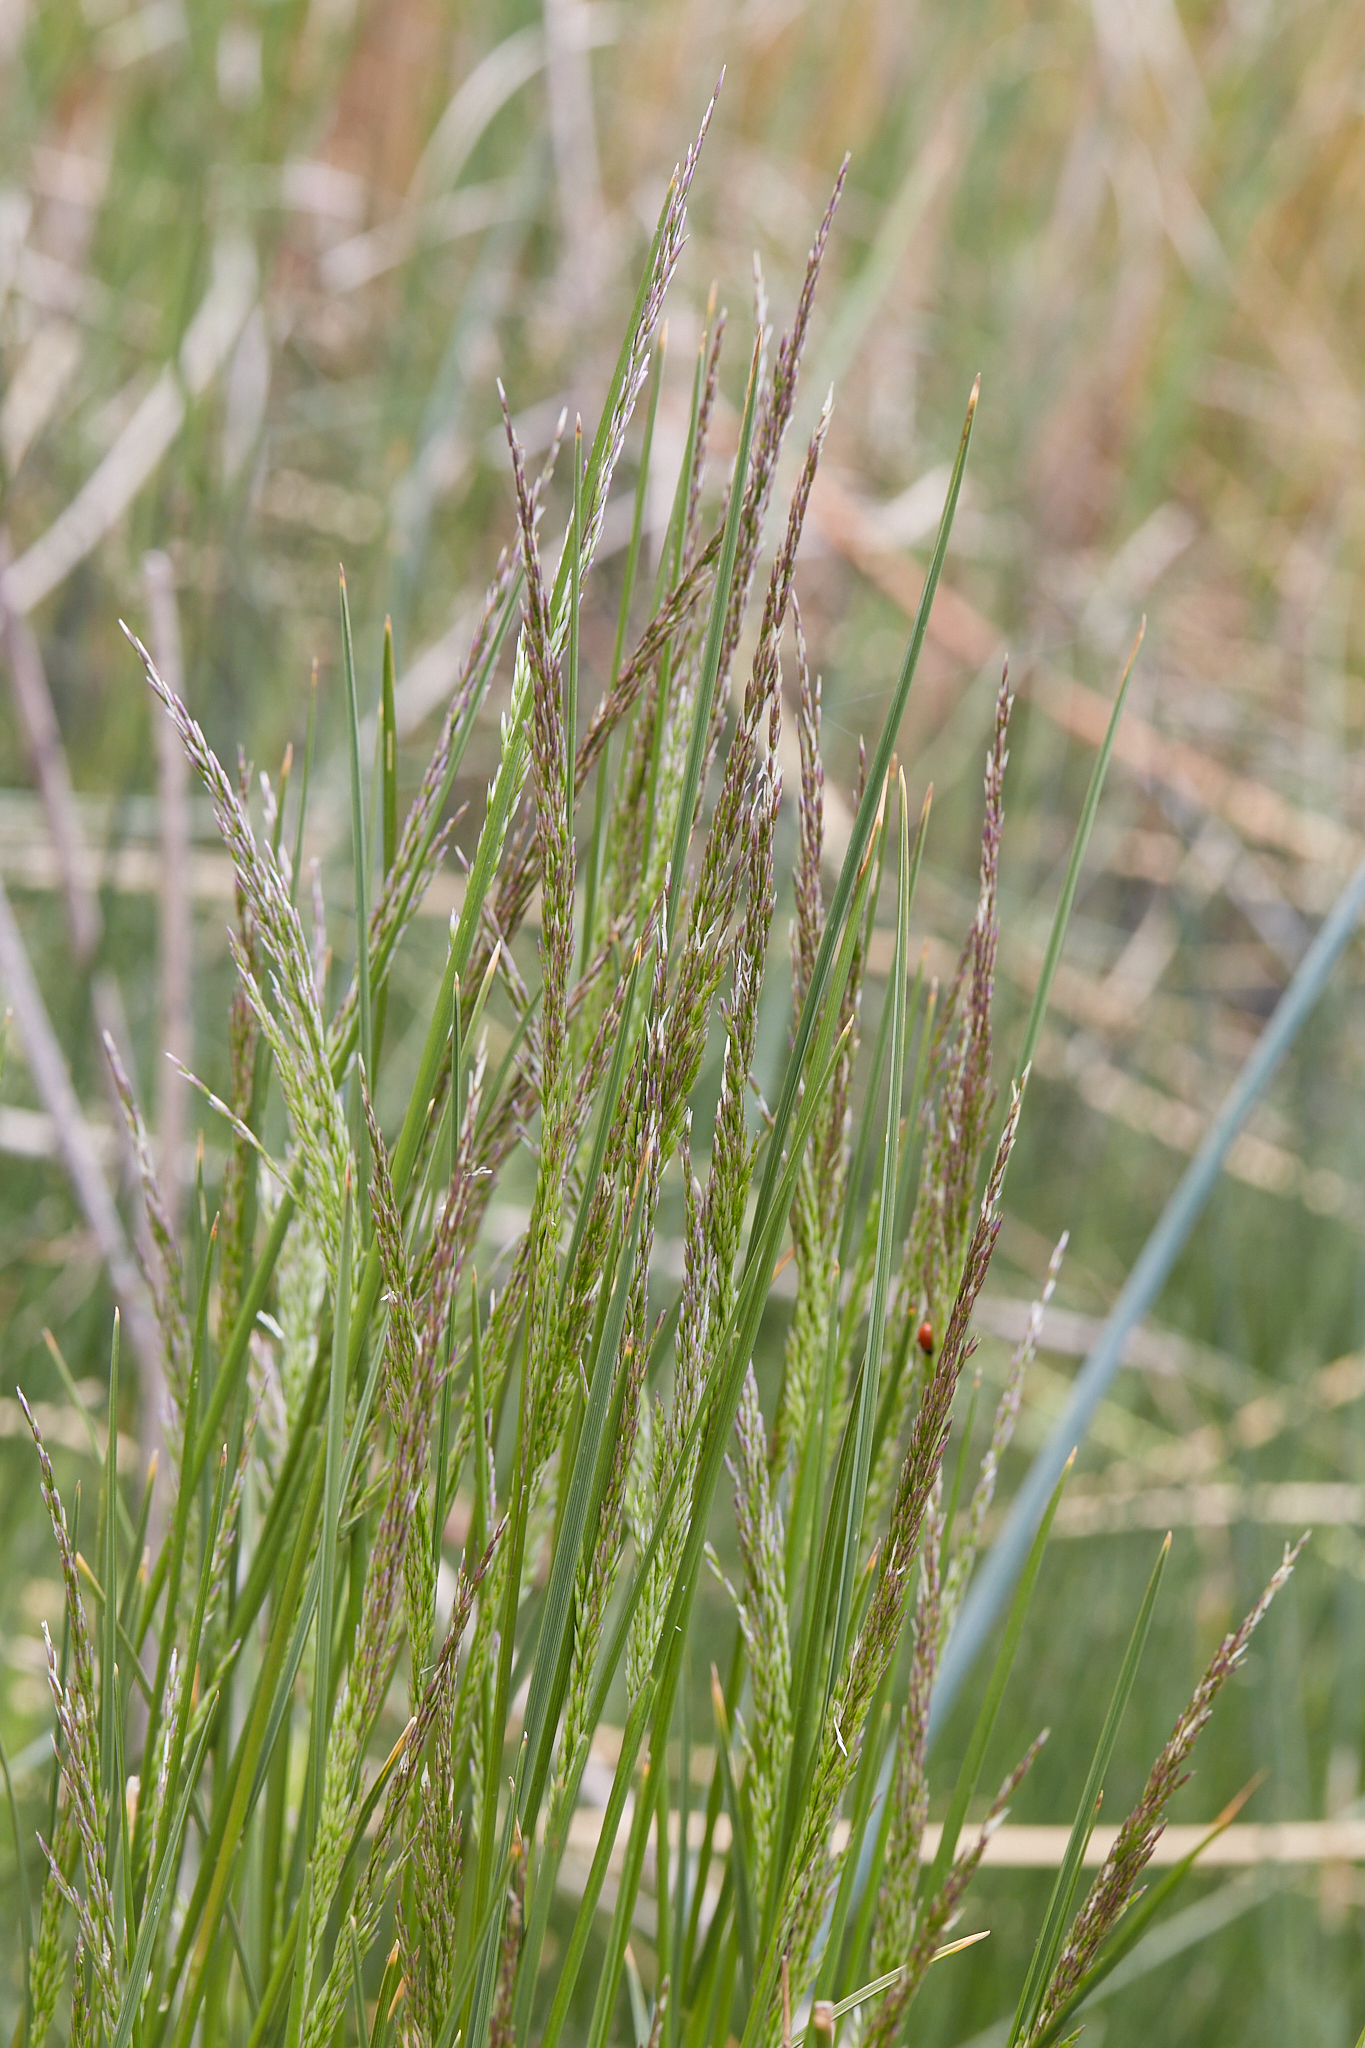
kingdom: Plantae
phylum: Tracheophyta
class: Liliopsida
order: Poales
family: Poaceae
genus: Deschampsia
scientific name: Deschampsia cespitosa
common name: Tufted hair-grass
